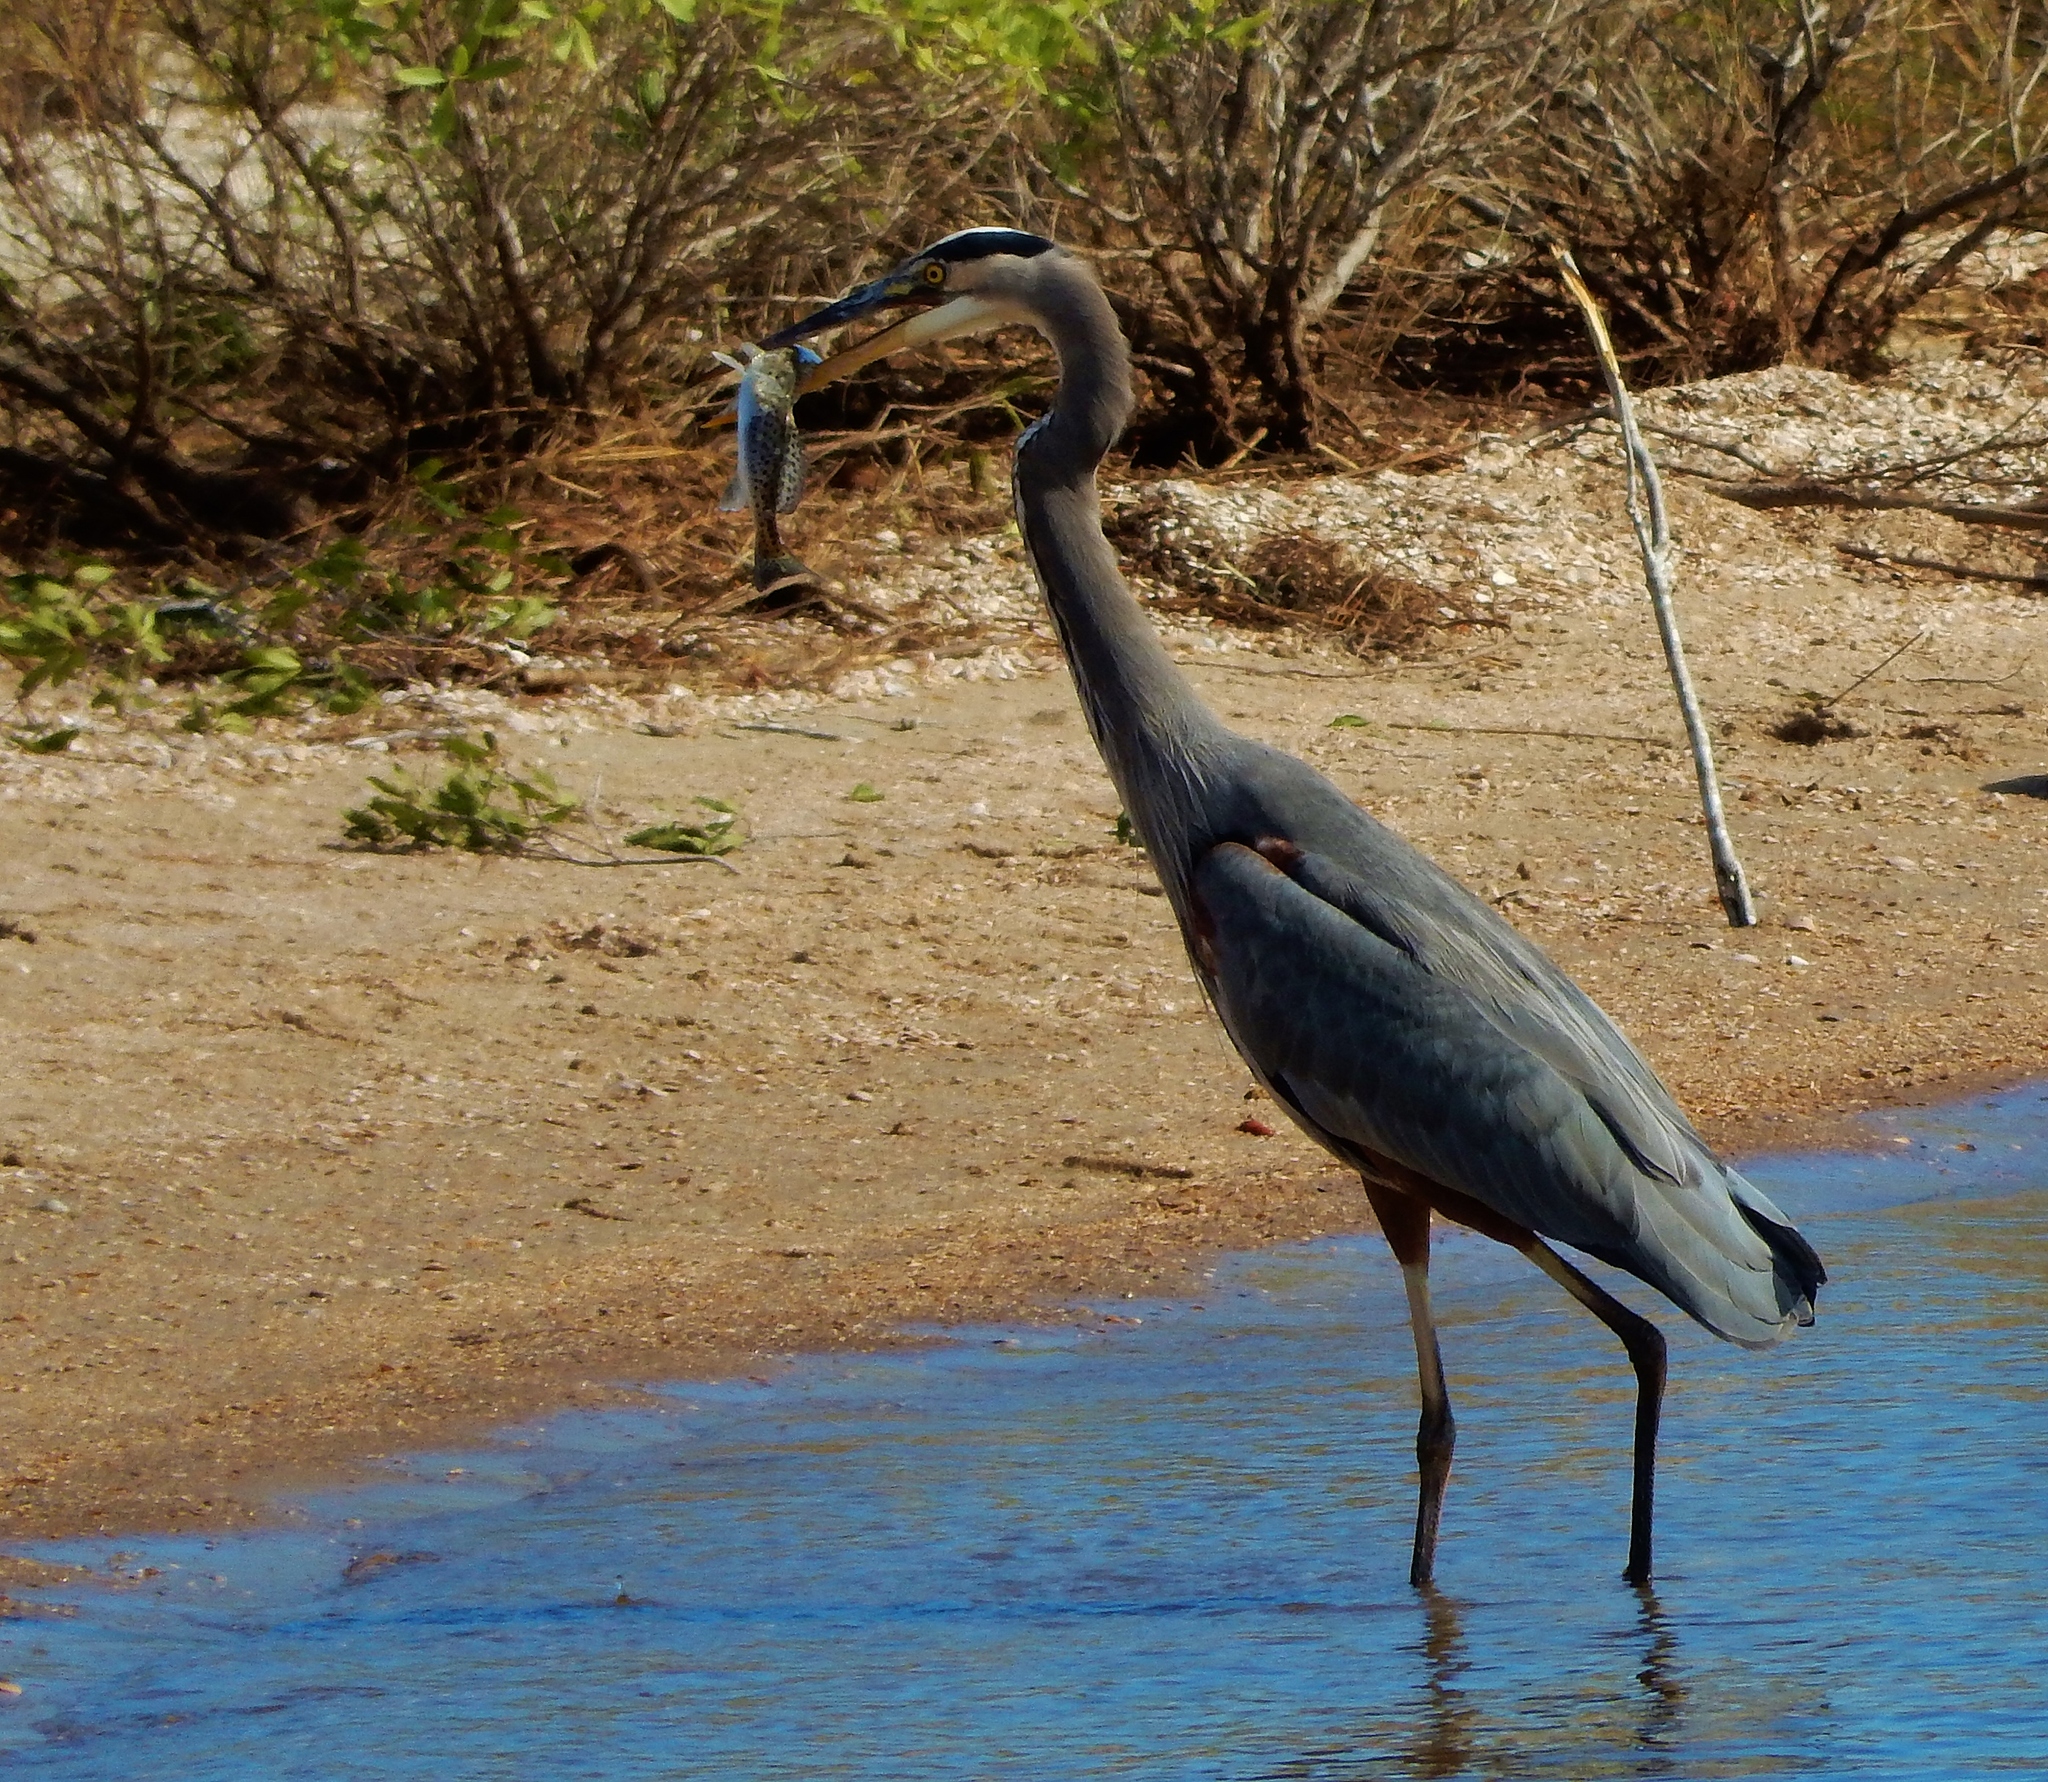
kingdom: Animalia
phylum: Chordata
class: Aves
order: Pelecaniformes
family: Ardeidae
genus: Ardea
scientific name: Ardea herodias
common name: Great blue heron
